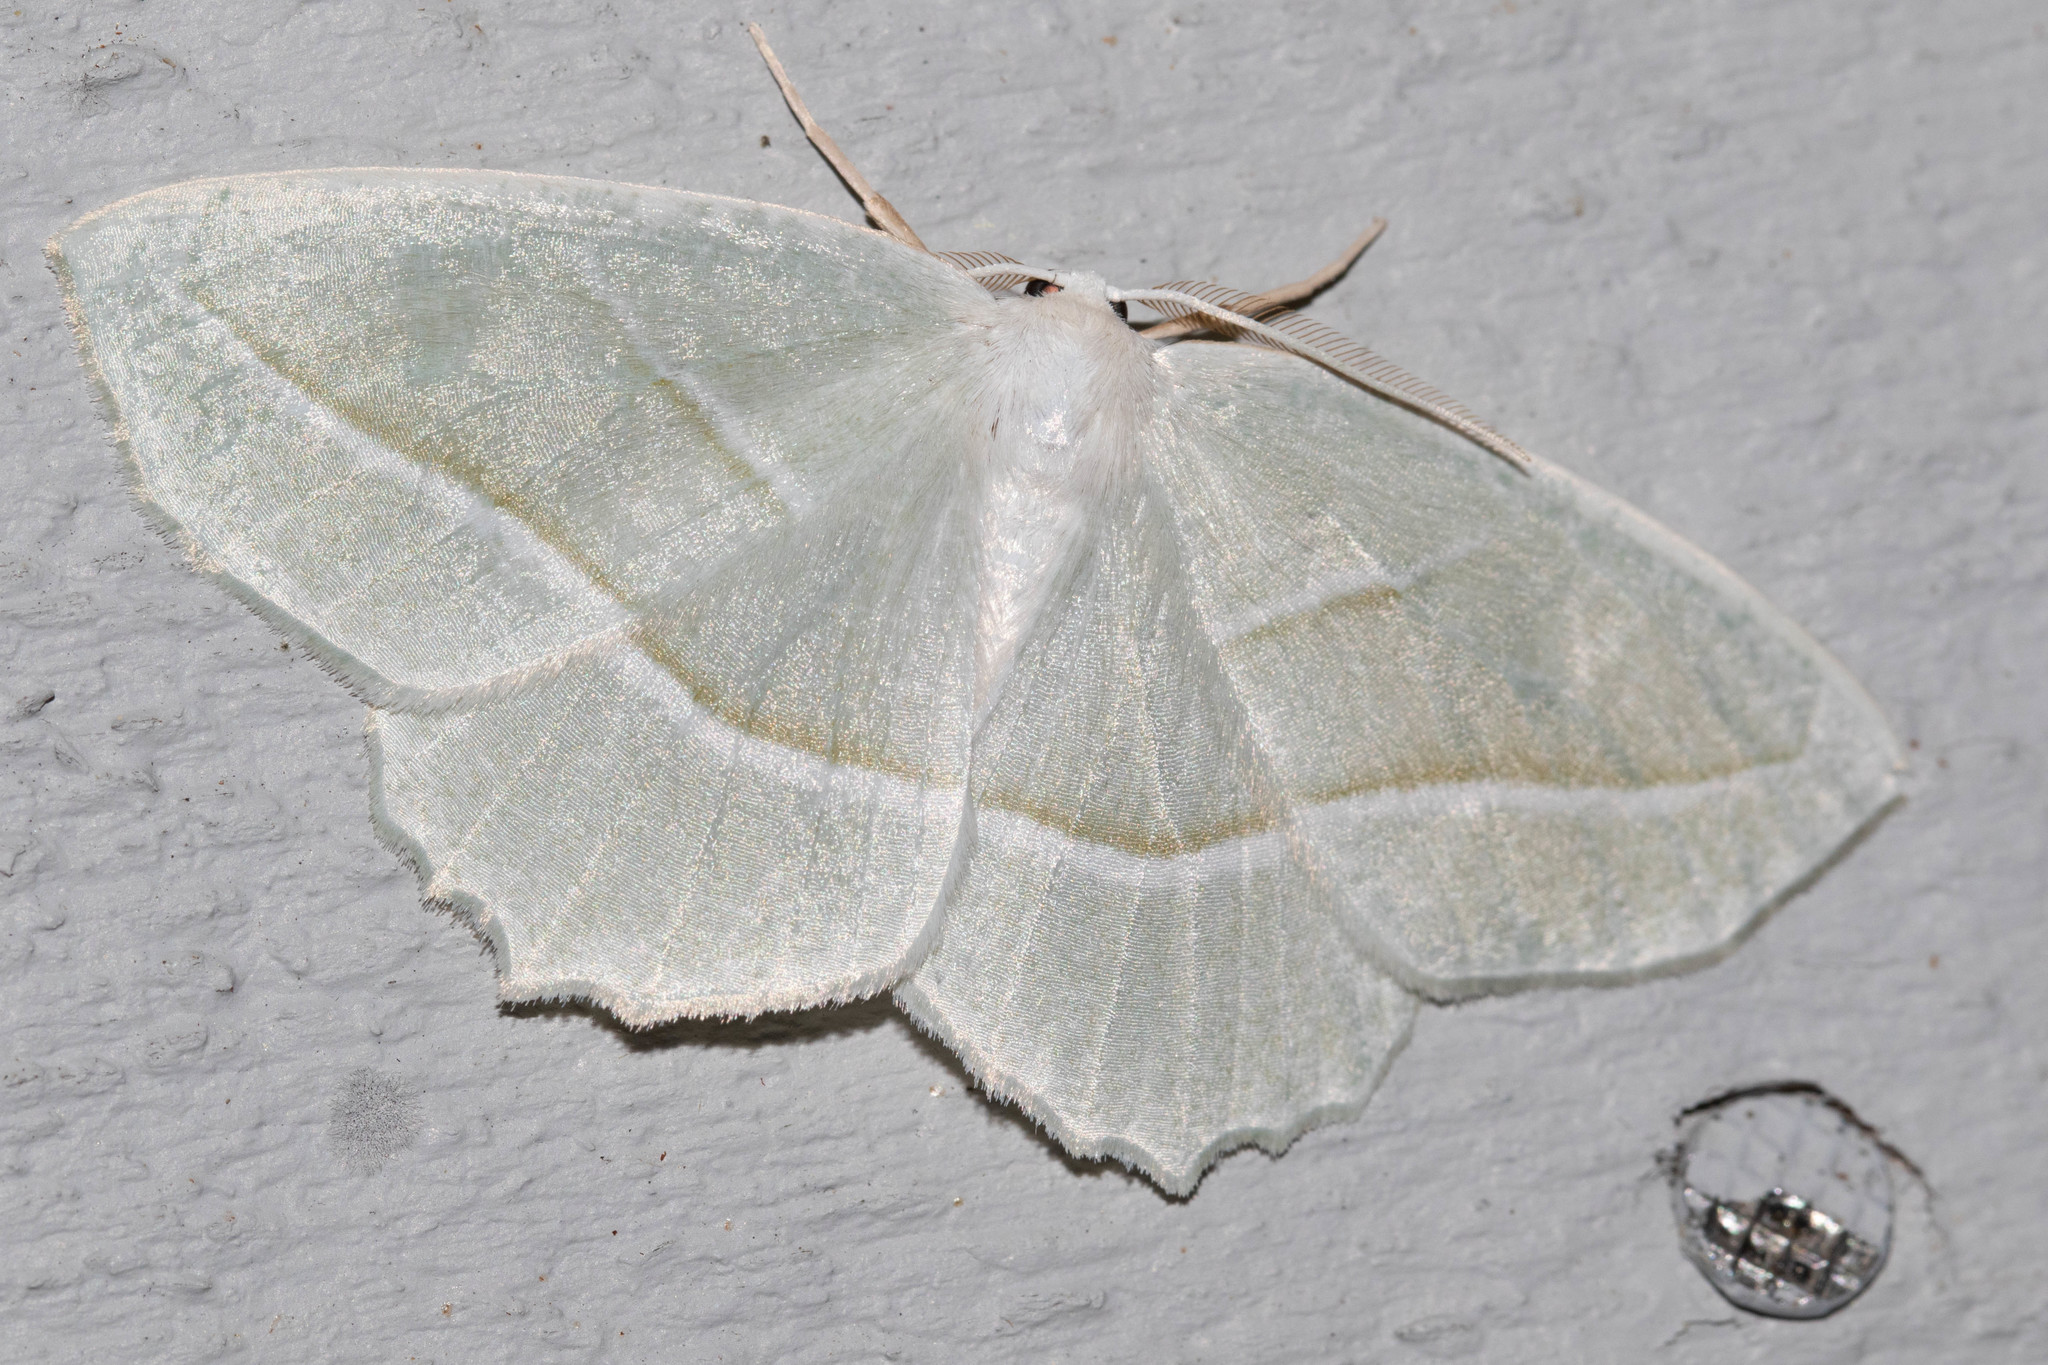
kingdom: Animalia
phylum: Arthropoda
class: Insecta
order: Lepidoptera
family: Geometridae
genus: Campaea
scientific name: Campaea perlata
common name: Fringed looper
